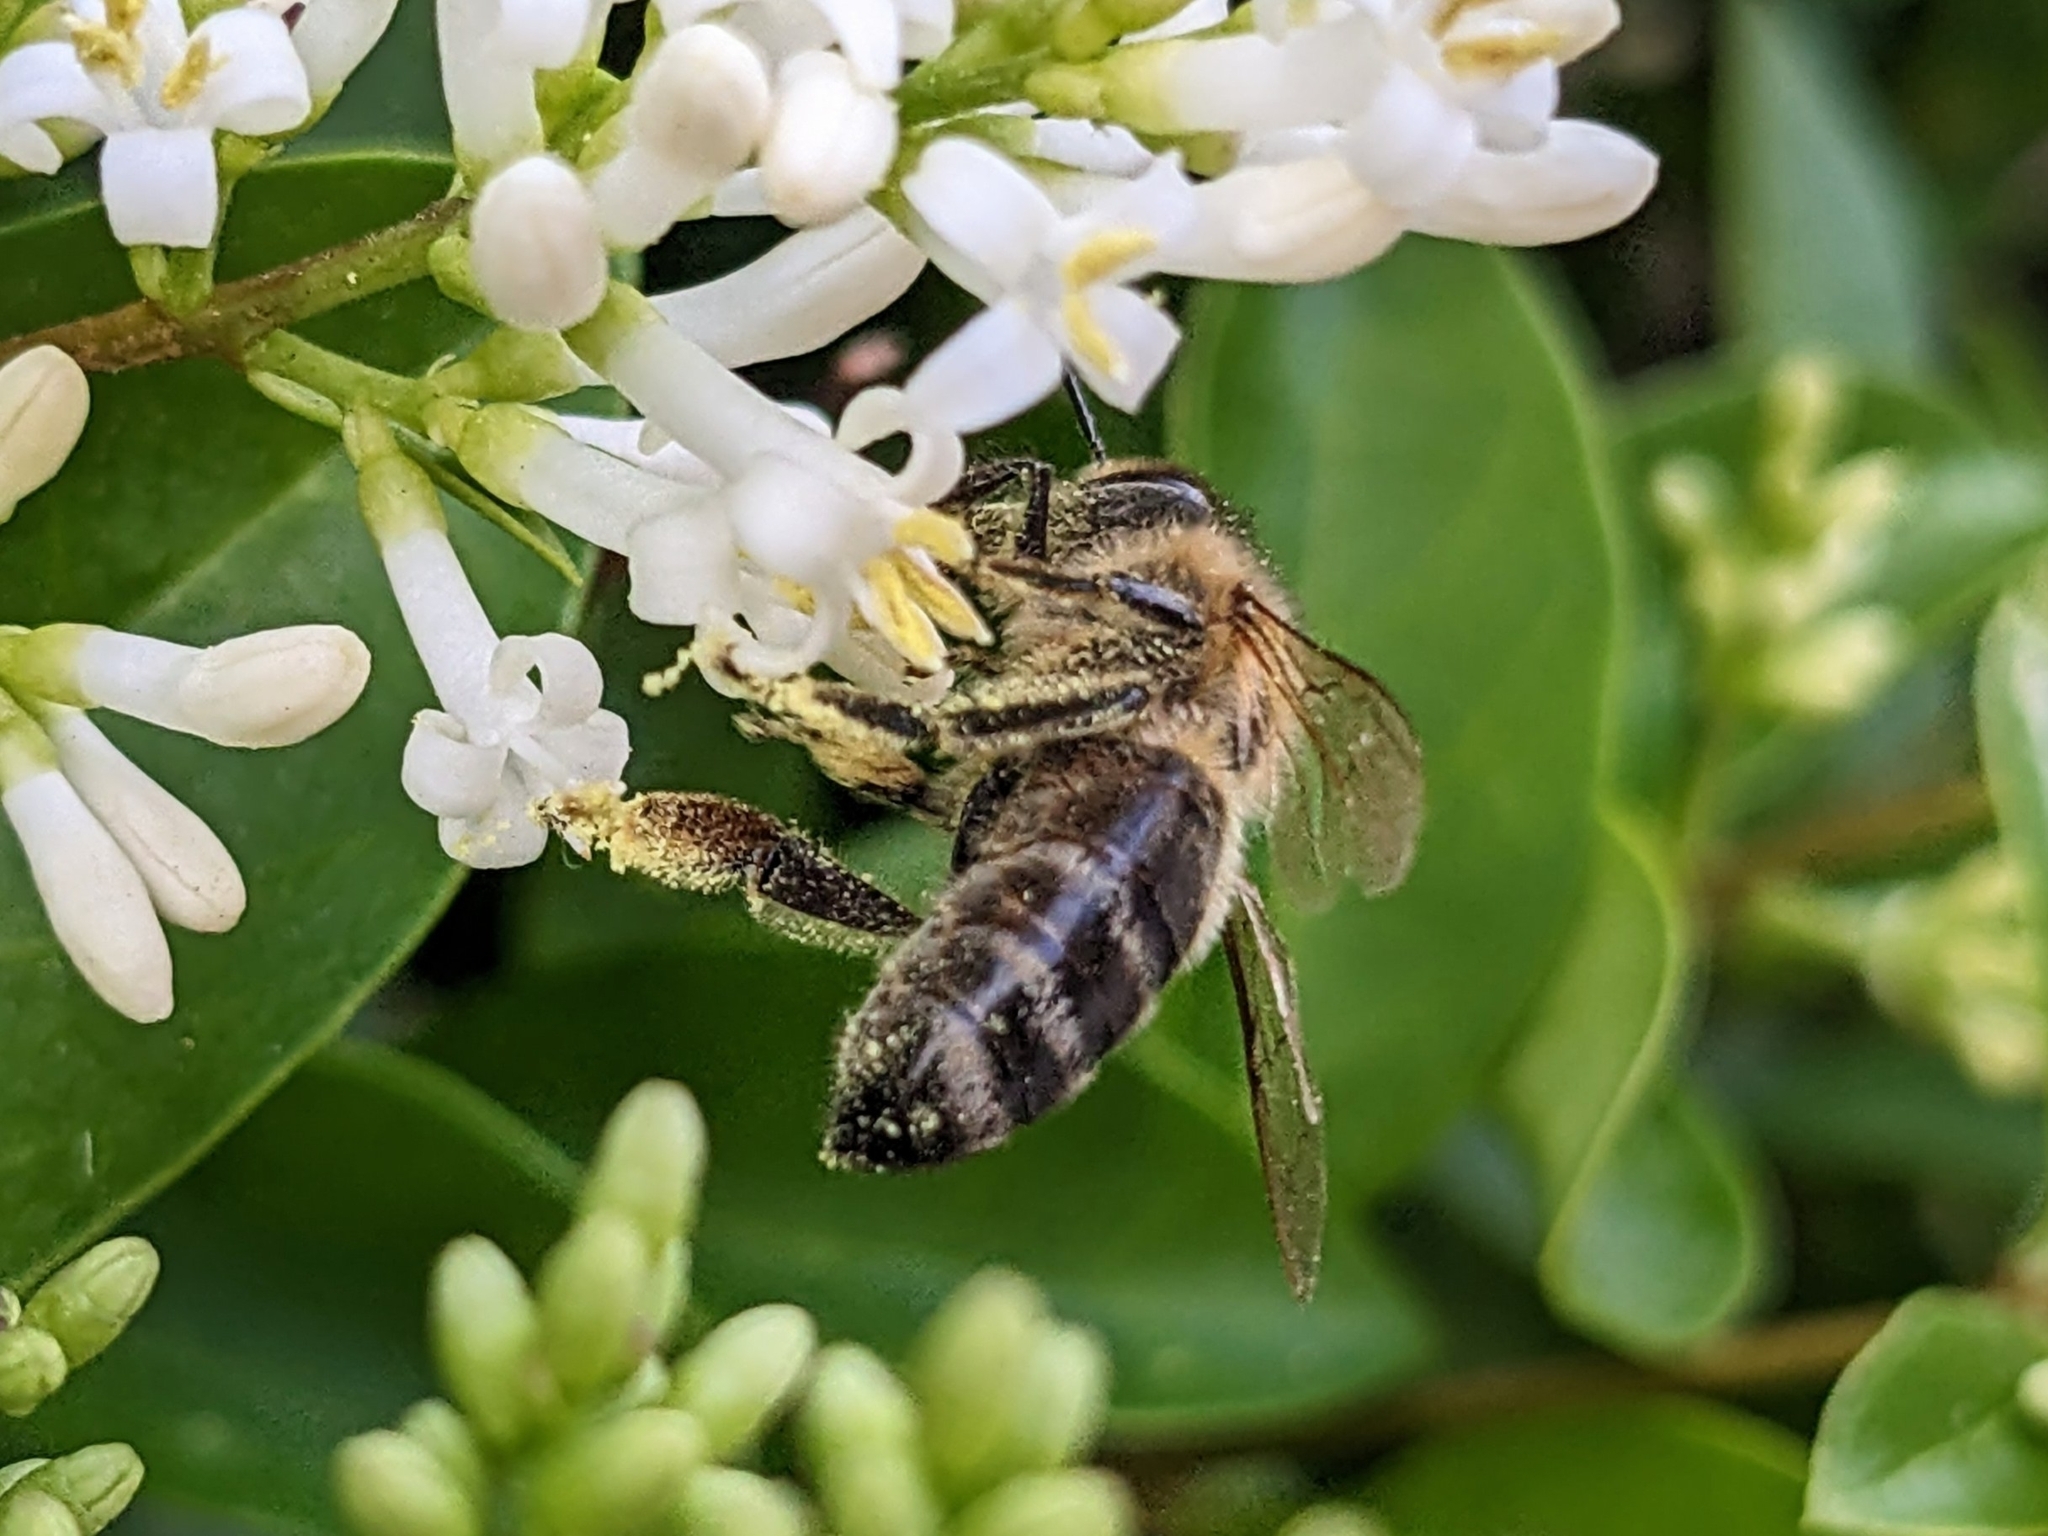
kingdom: Animalia
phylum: Arthropoda
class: Insecta
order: Hymenoptera
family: Apidae
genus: Apis
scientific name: Apis mellifera
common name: Honey bee
